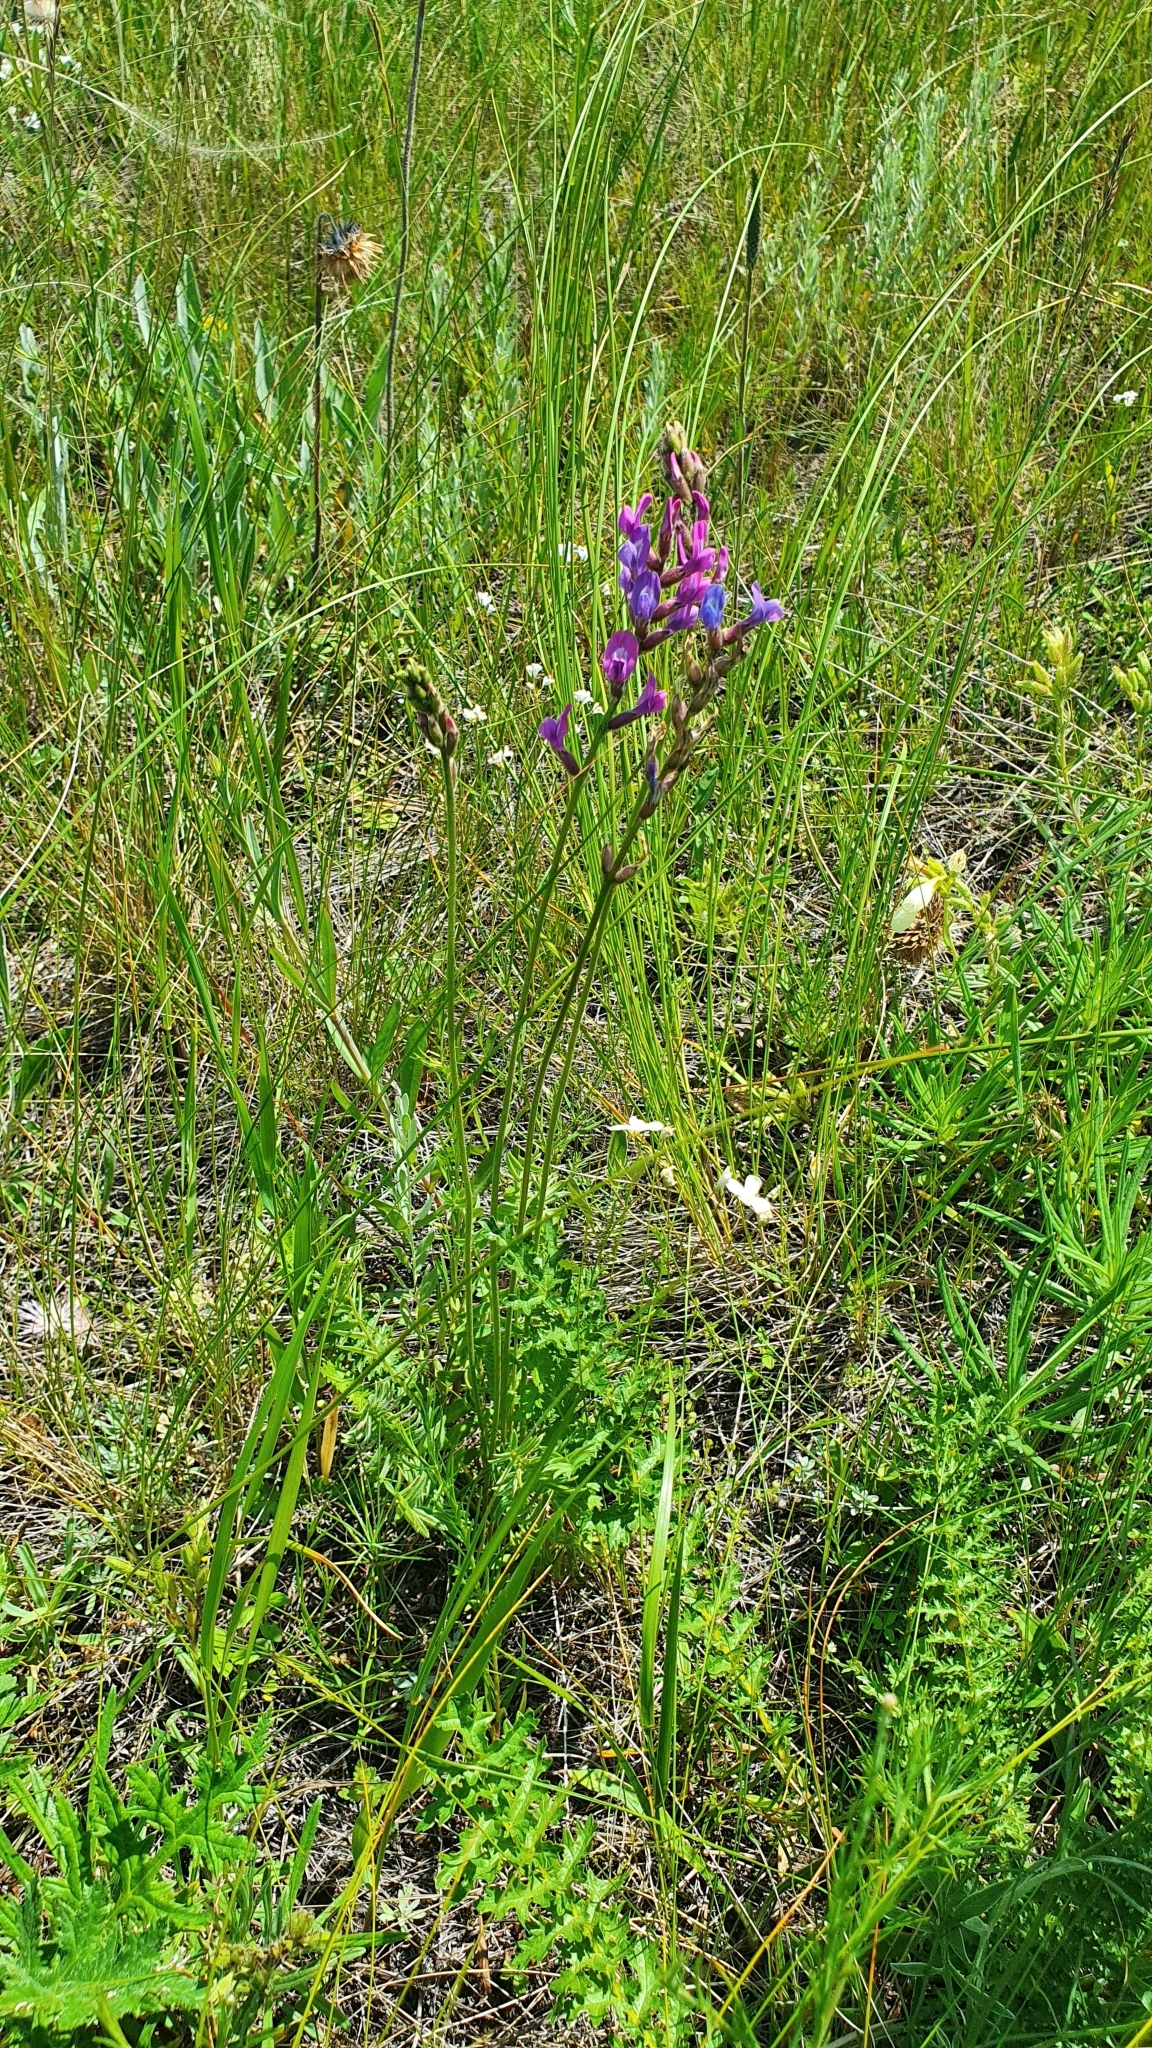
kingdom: Plantae
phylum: Tracheophyta
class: Magnoliopsida
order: Fabales
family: Fabaceae
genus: Oxytropis
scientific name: Oxytropis knjazevii
